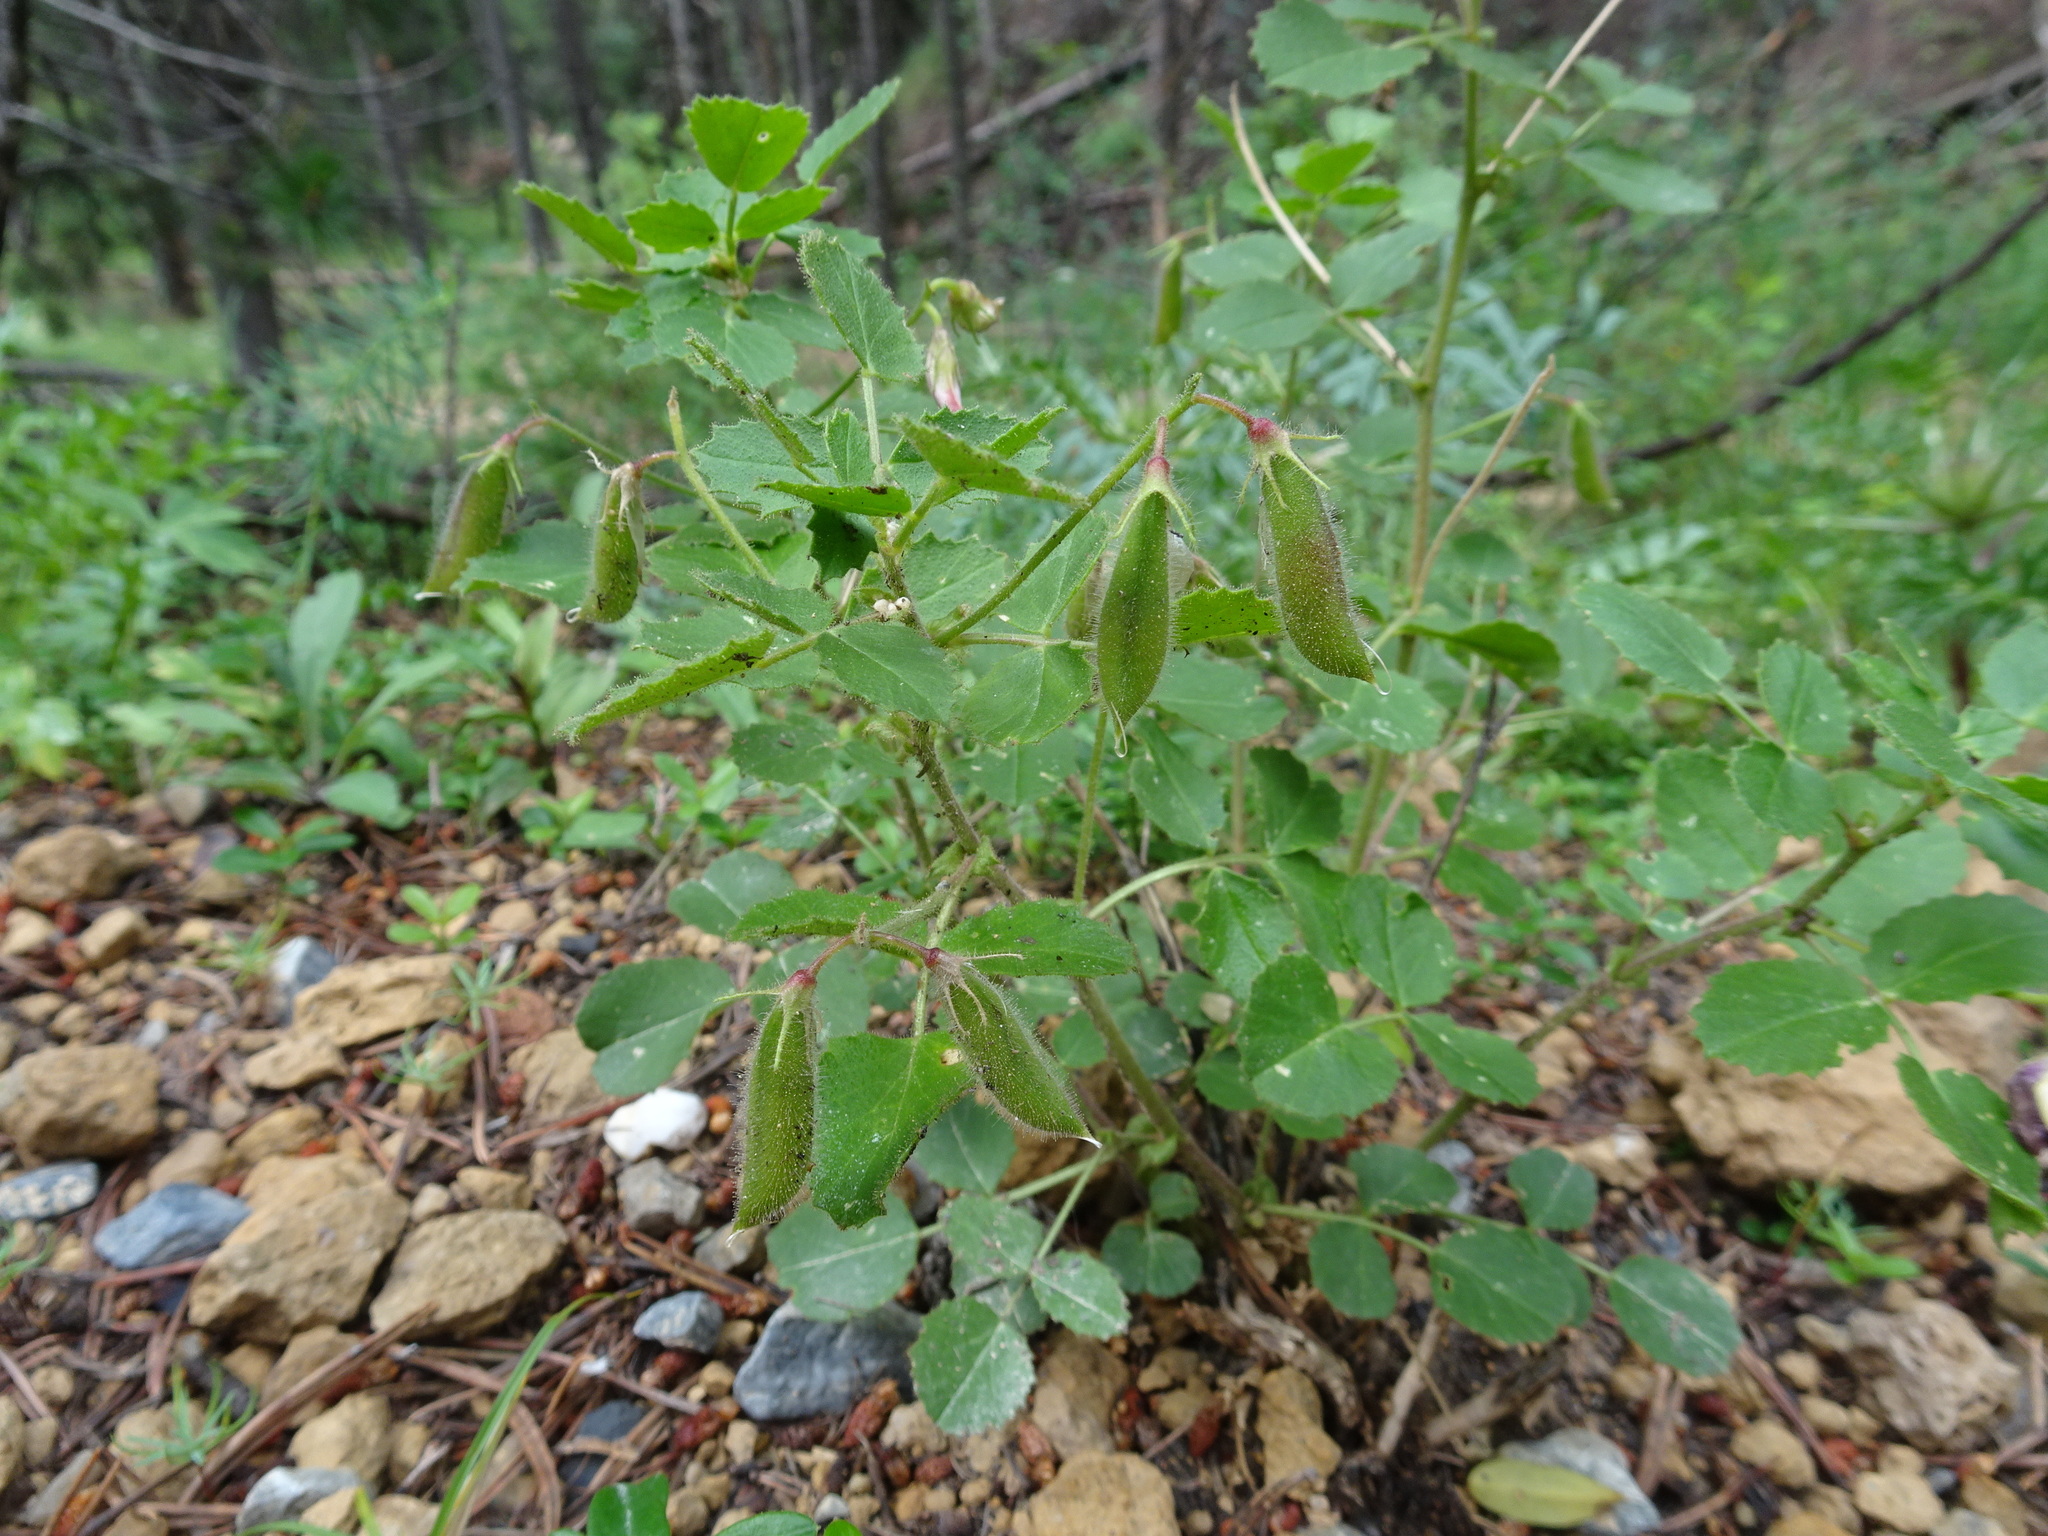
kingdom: Plantae
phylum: Tracheophyta
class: Magnoliopsida
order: Fabales
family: Fabaceae
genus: Ononis
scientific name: Ononis rotundifolia
